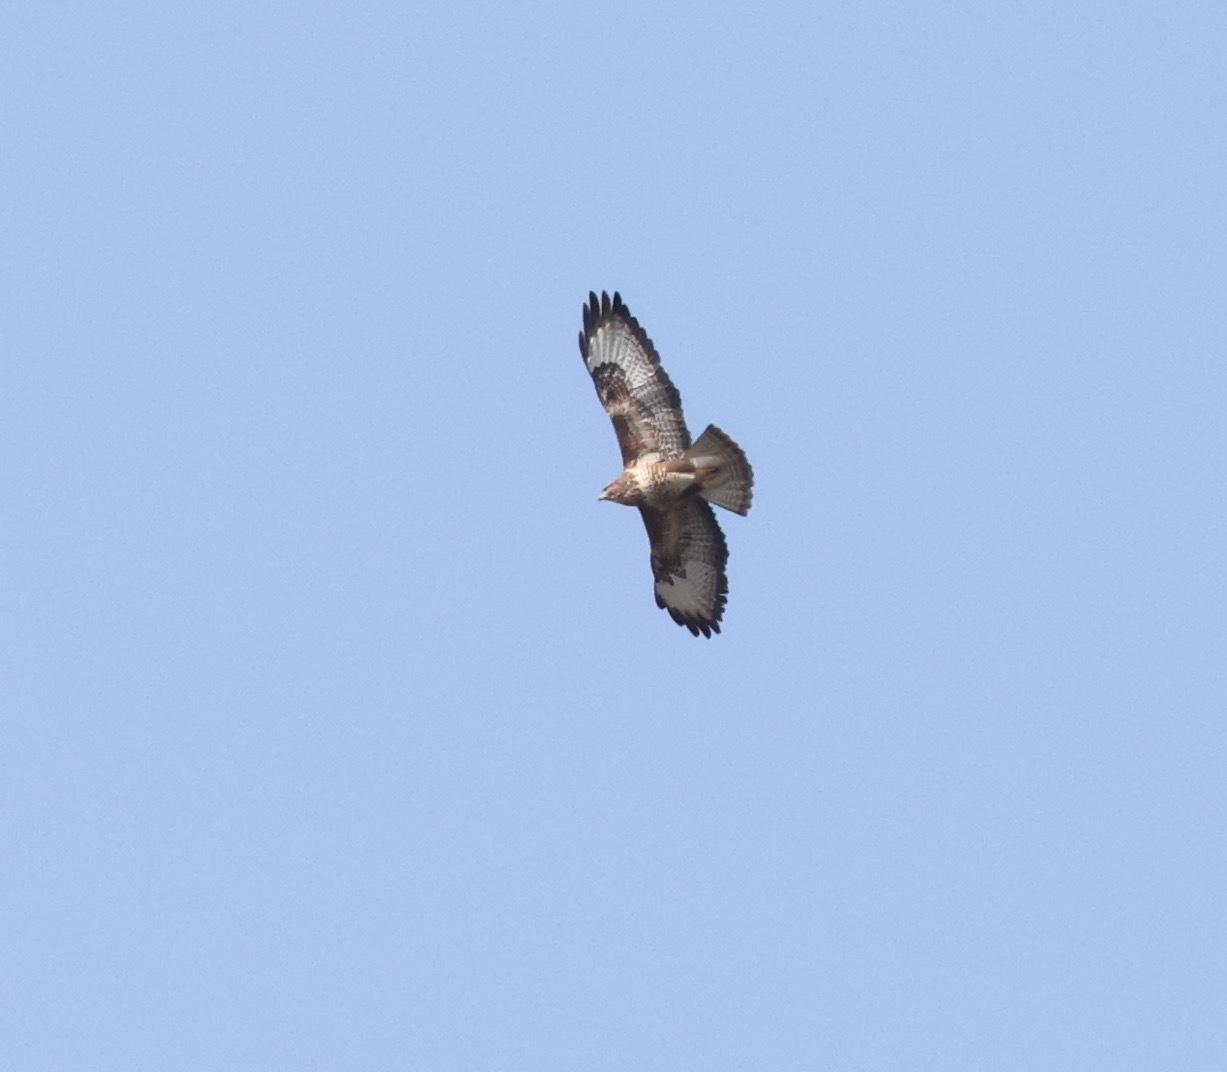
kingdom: Animalia
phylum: Chordata
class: Aves
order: Accipitriformes
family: Accipitridae
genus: Buteo
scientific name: Buteo buteo
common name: Common buzzard
